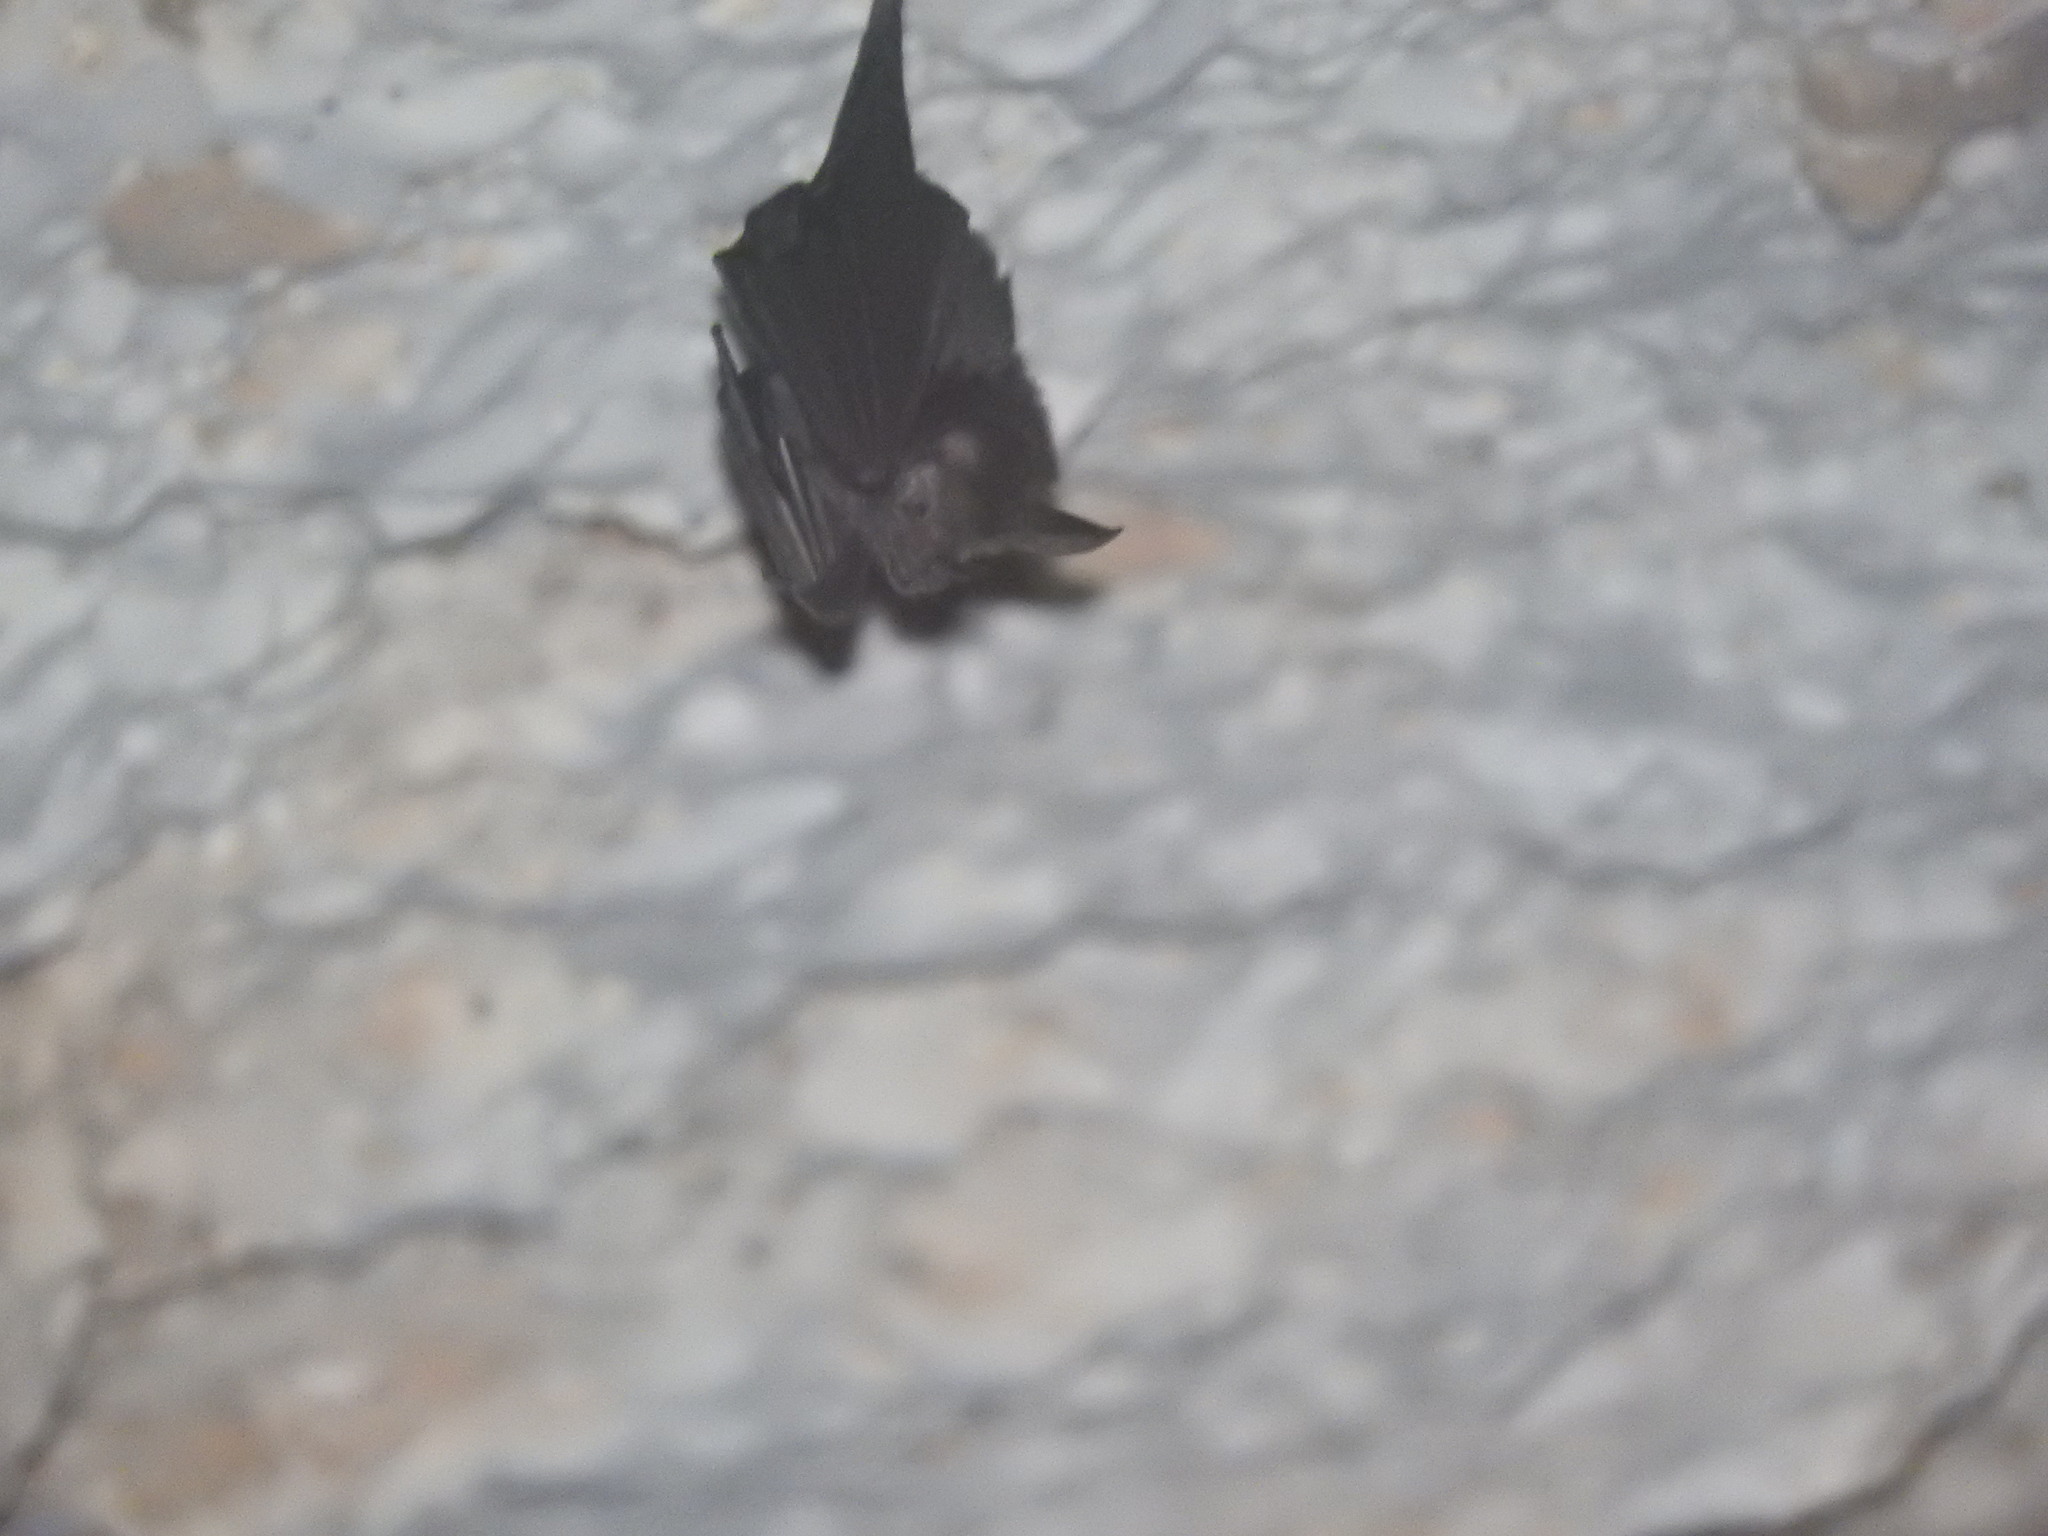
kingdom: Animalia
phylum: Chordata
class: Mammalia
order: Chiroptera
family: Phyllostomidae
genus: Micronycteris
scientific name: Micronycteris microtis
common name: Common big-eared bat
